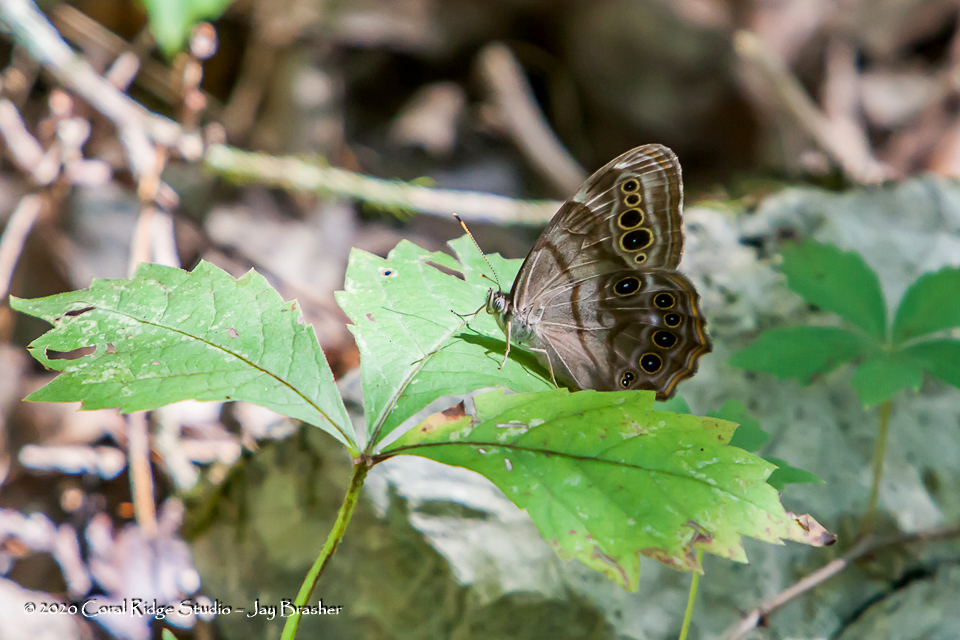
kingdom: Animalia
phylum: Arthropoda
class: Insecta
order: Lepidoptera
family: Nymphalidae
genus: Lethe
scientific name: Lethe anthedon
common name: Northern pearly-eye
